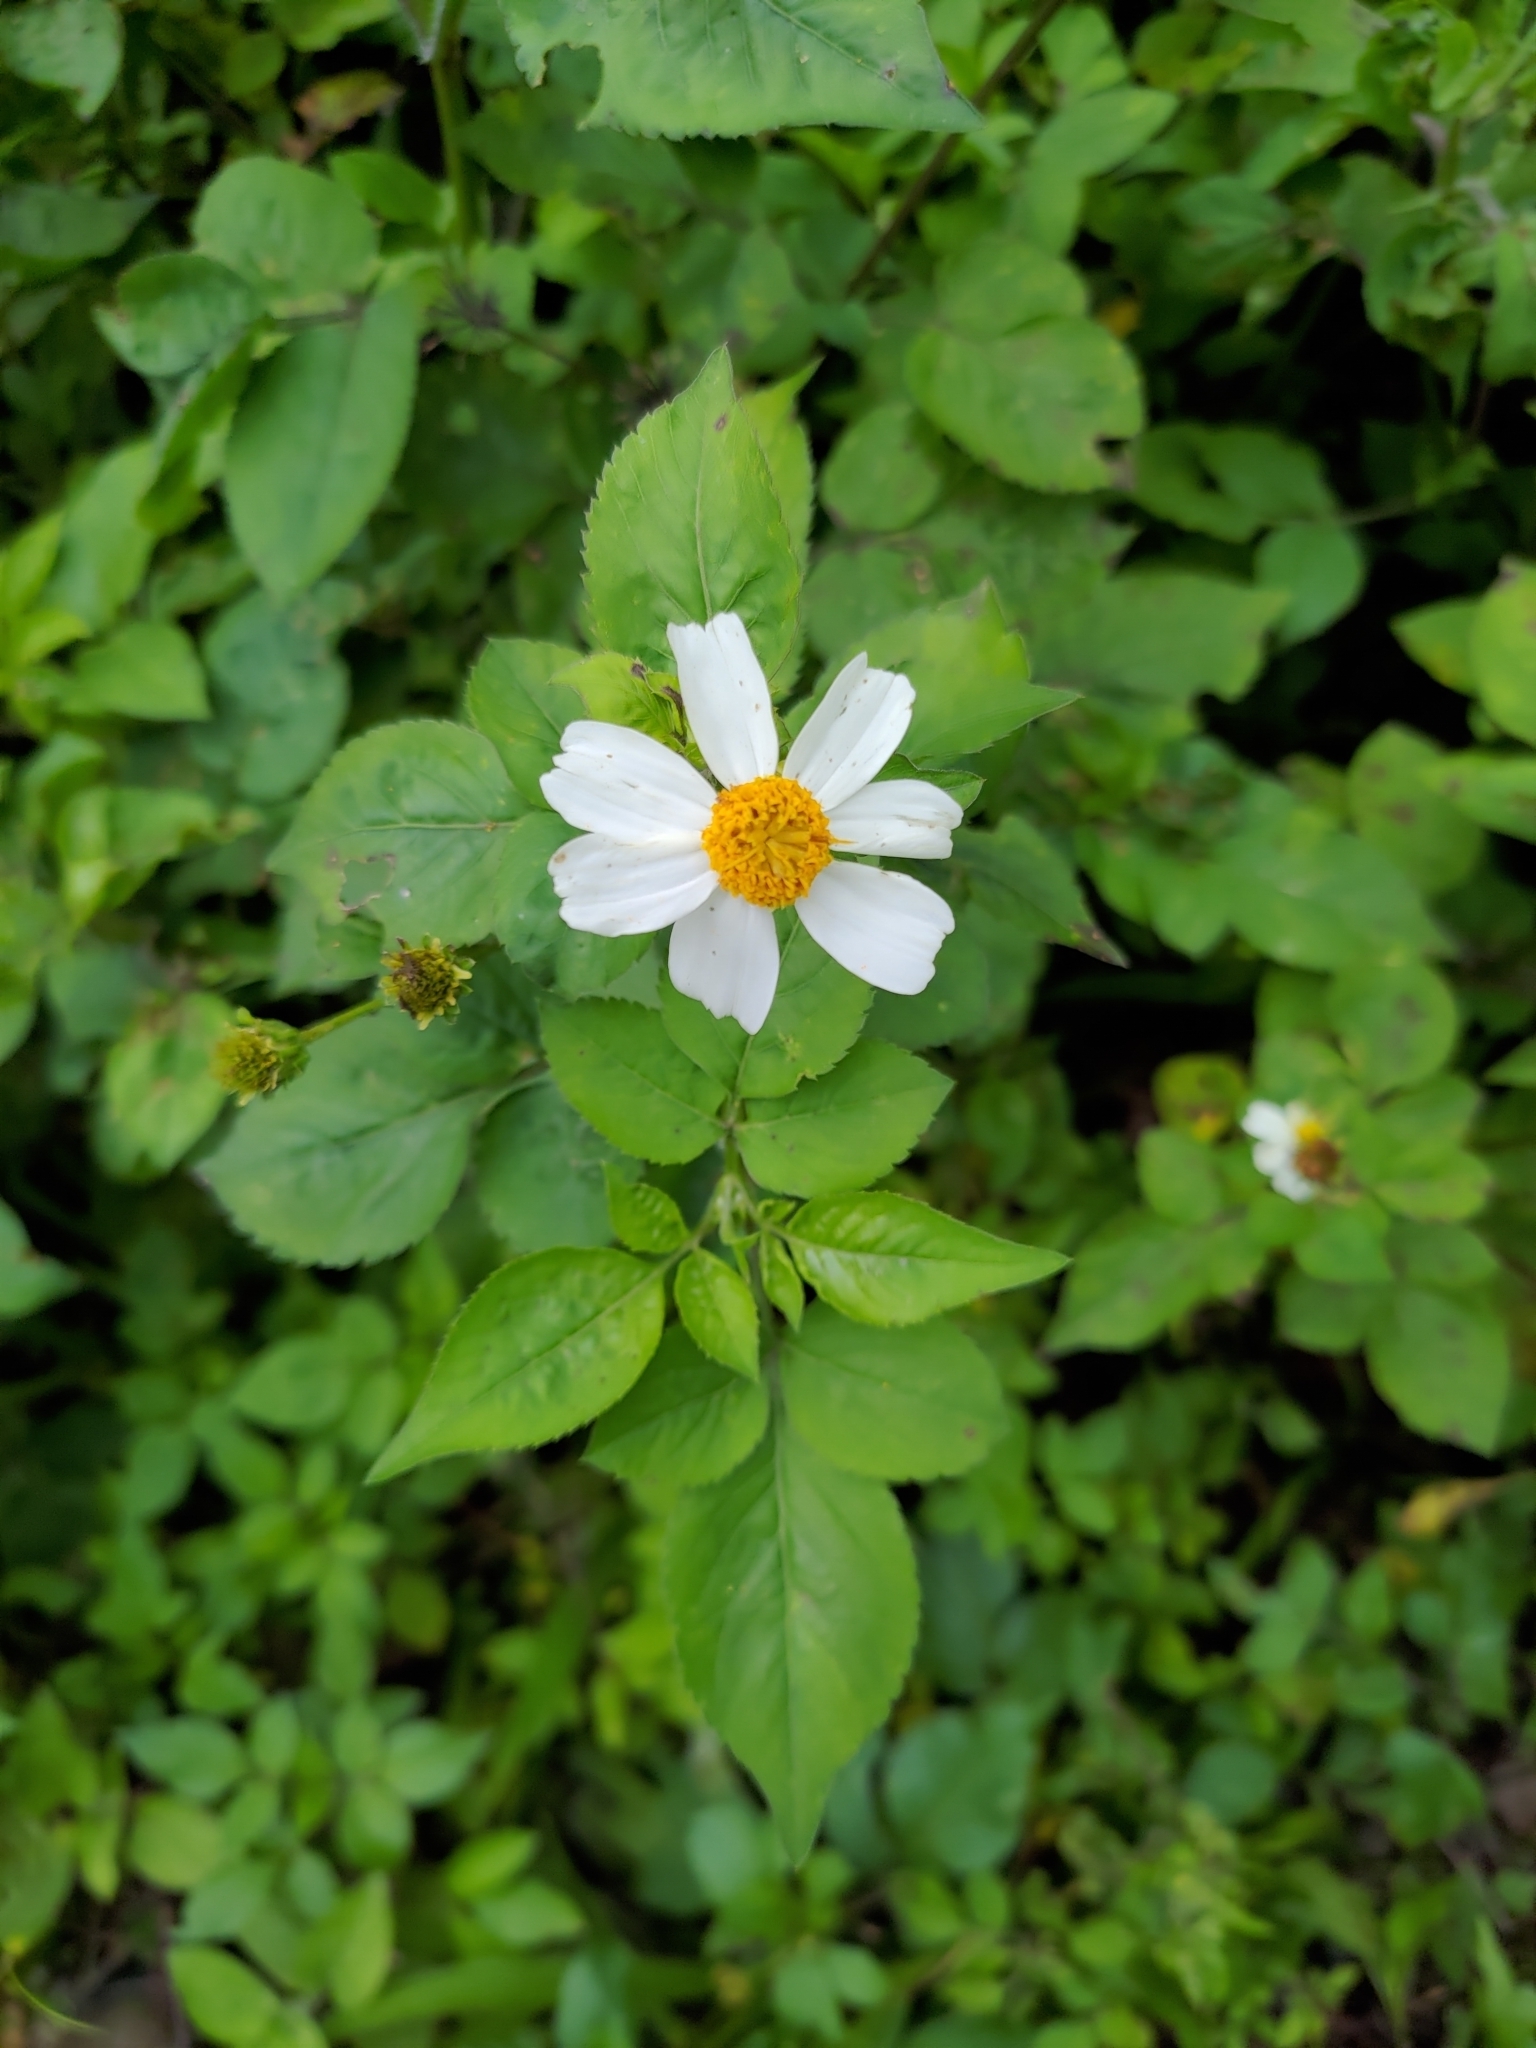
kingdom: Plantae
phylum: Tracheophyta
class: Magnoliopsida
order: Asterales
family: Asteraceae
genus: Bidens
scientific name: Bidens alba
